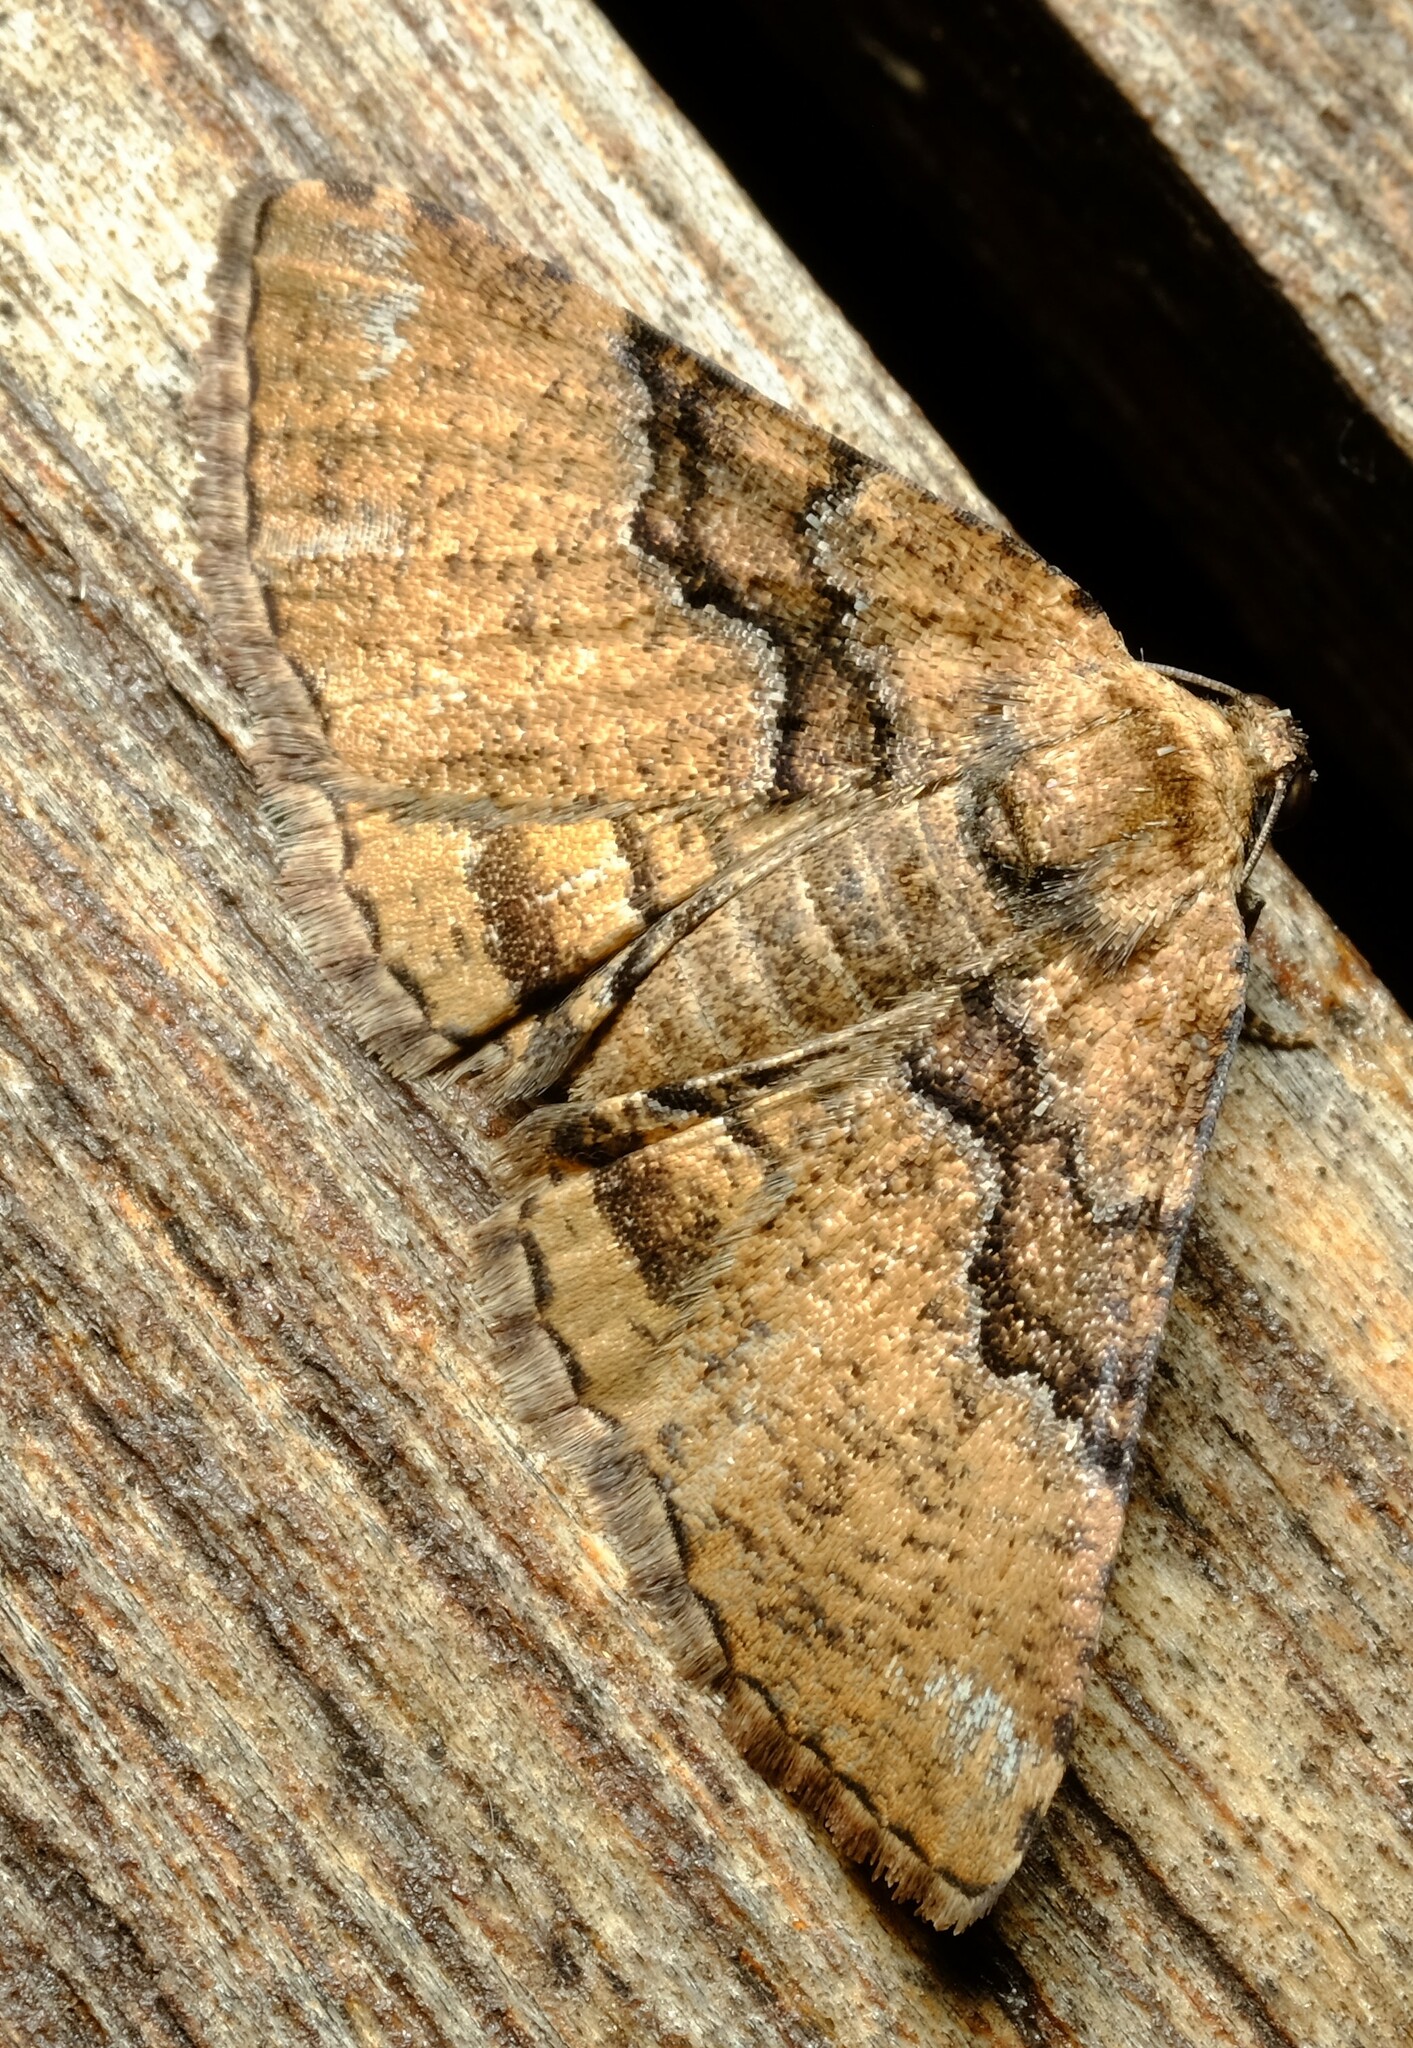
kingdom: Animalia
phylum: Arthropoda
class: Insecta
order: Lepidoptera
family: Geometridae
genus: Aporoctena
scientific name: Aporoctena
